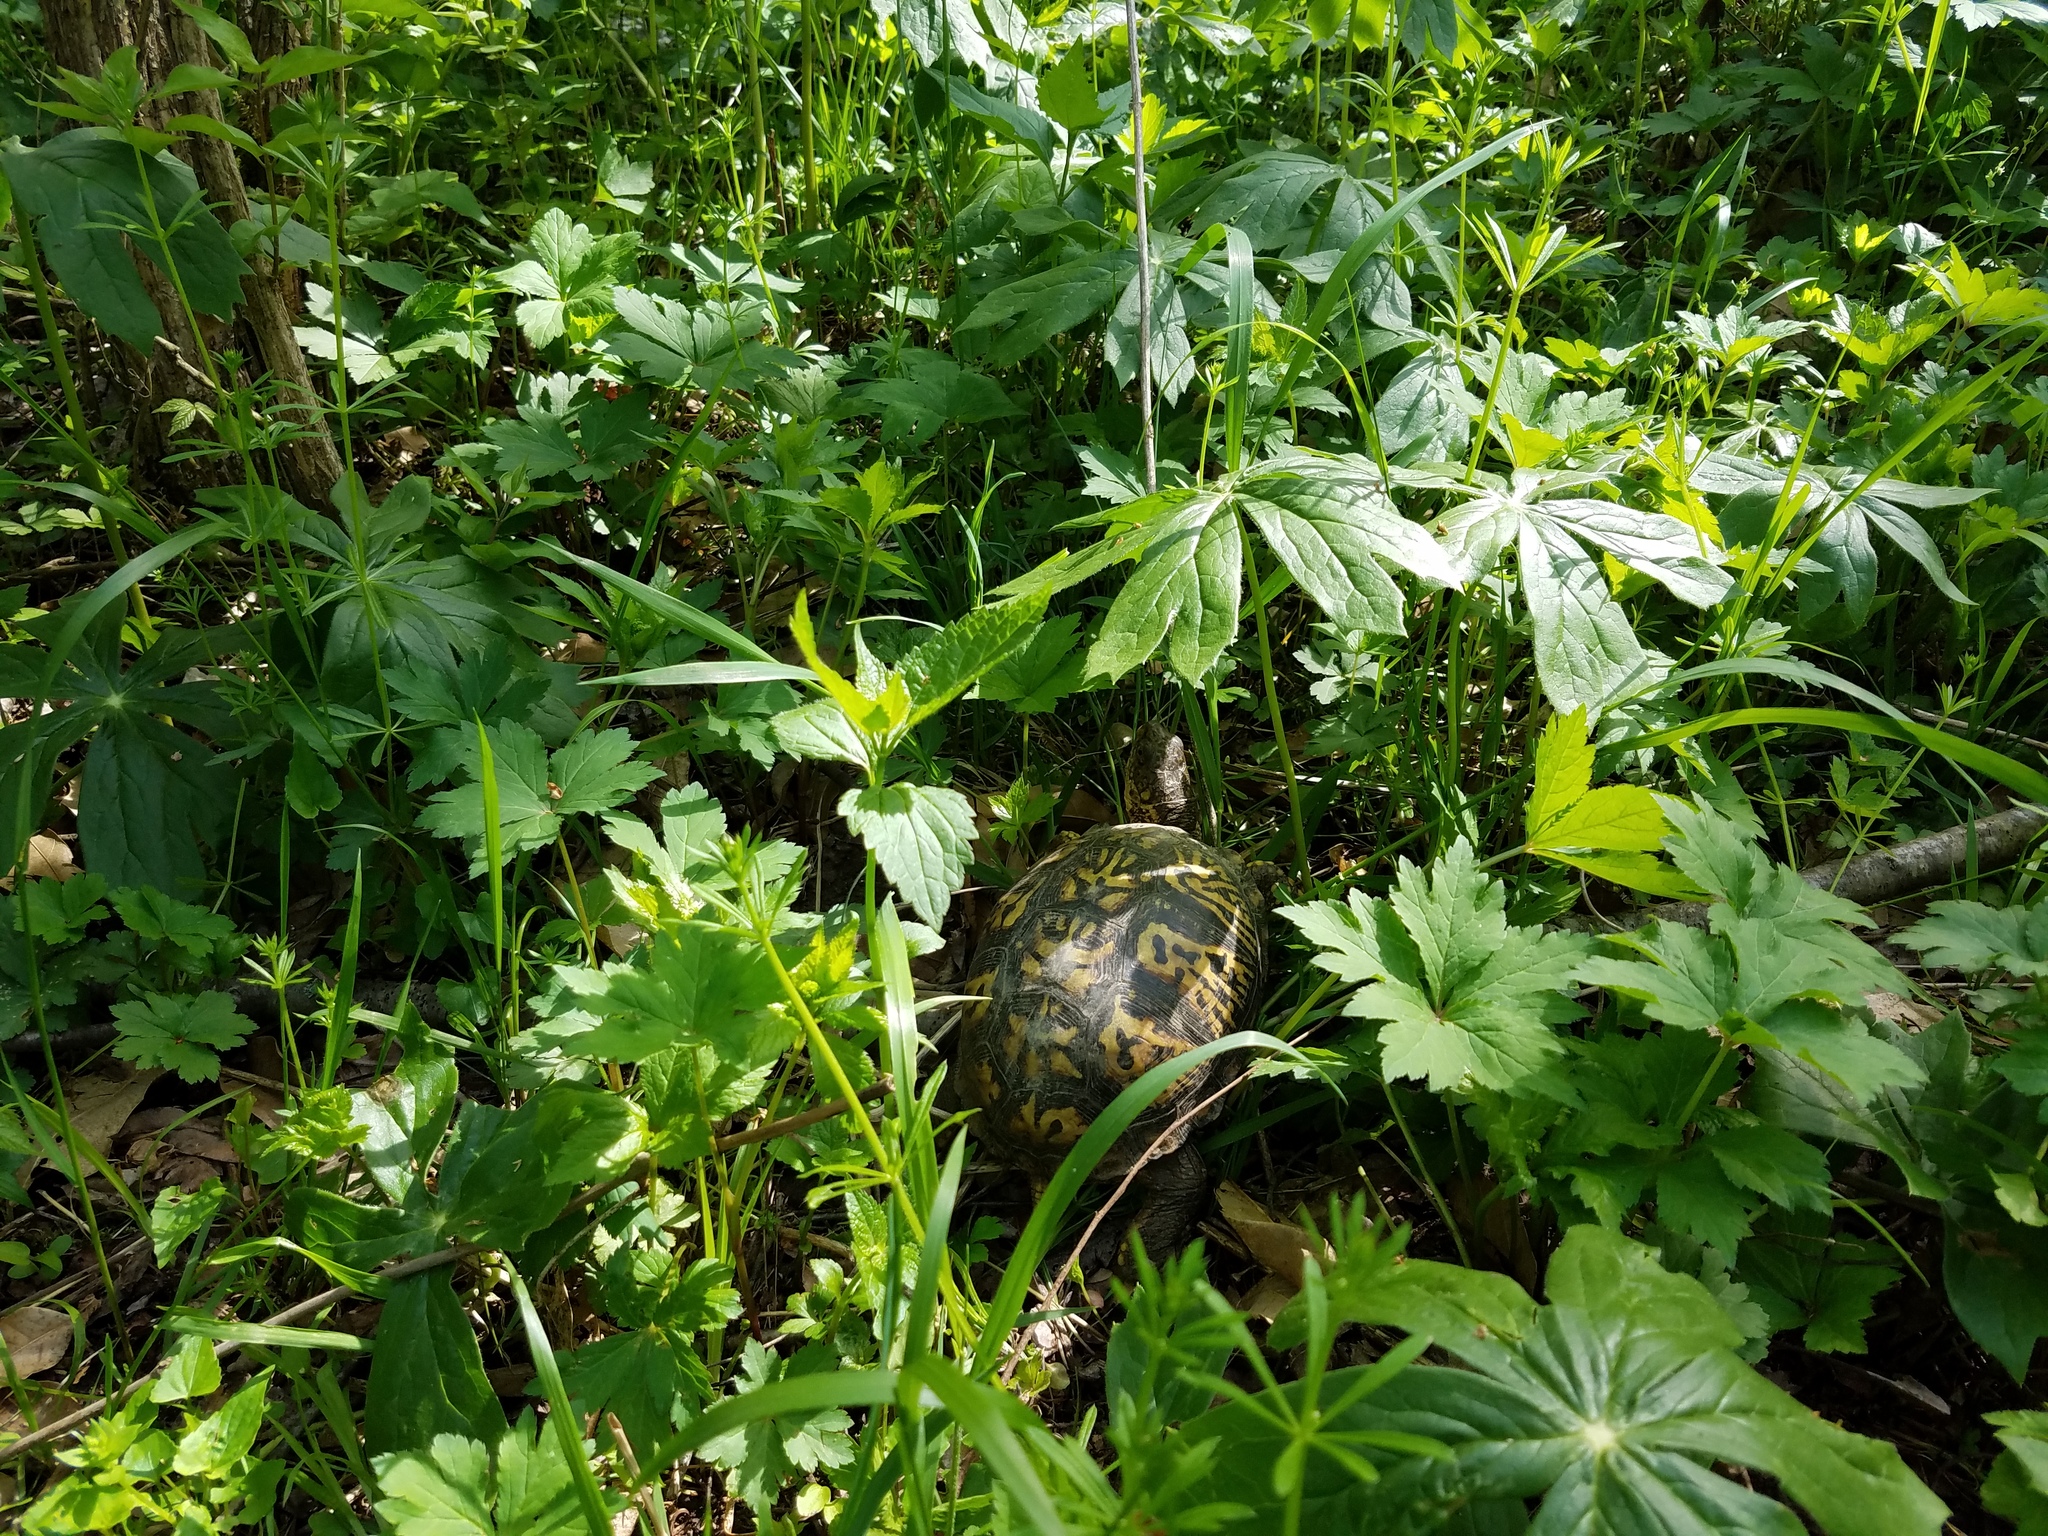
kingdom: Animalia
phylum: Chordata
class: Testudines
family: Emydidae
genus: Terrapene
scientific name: Terrapene carolina
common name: Common box turtle
